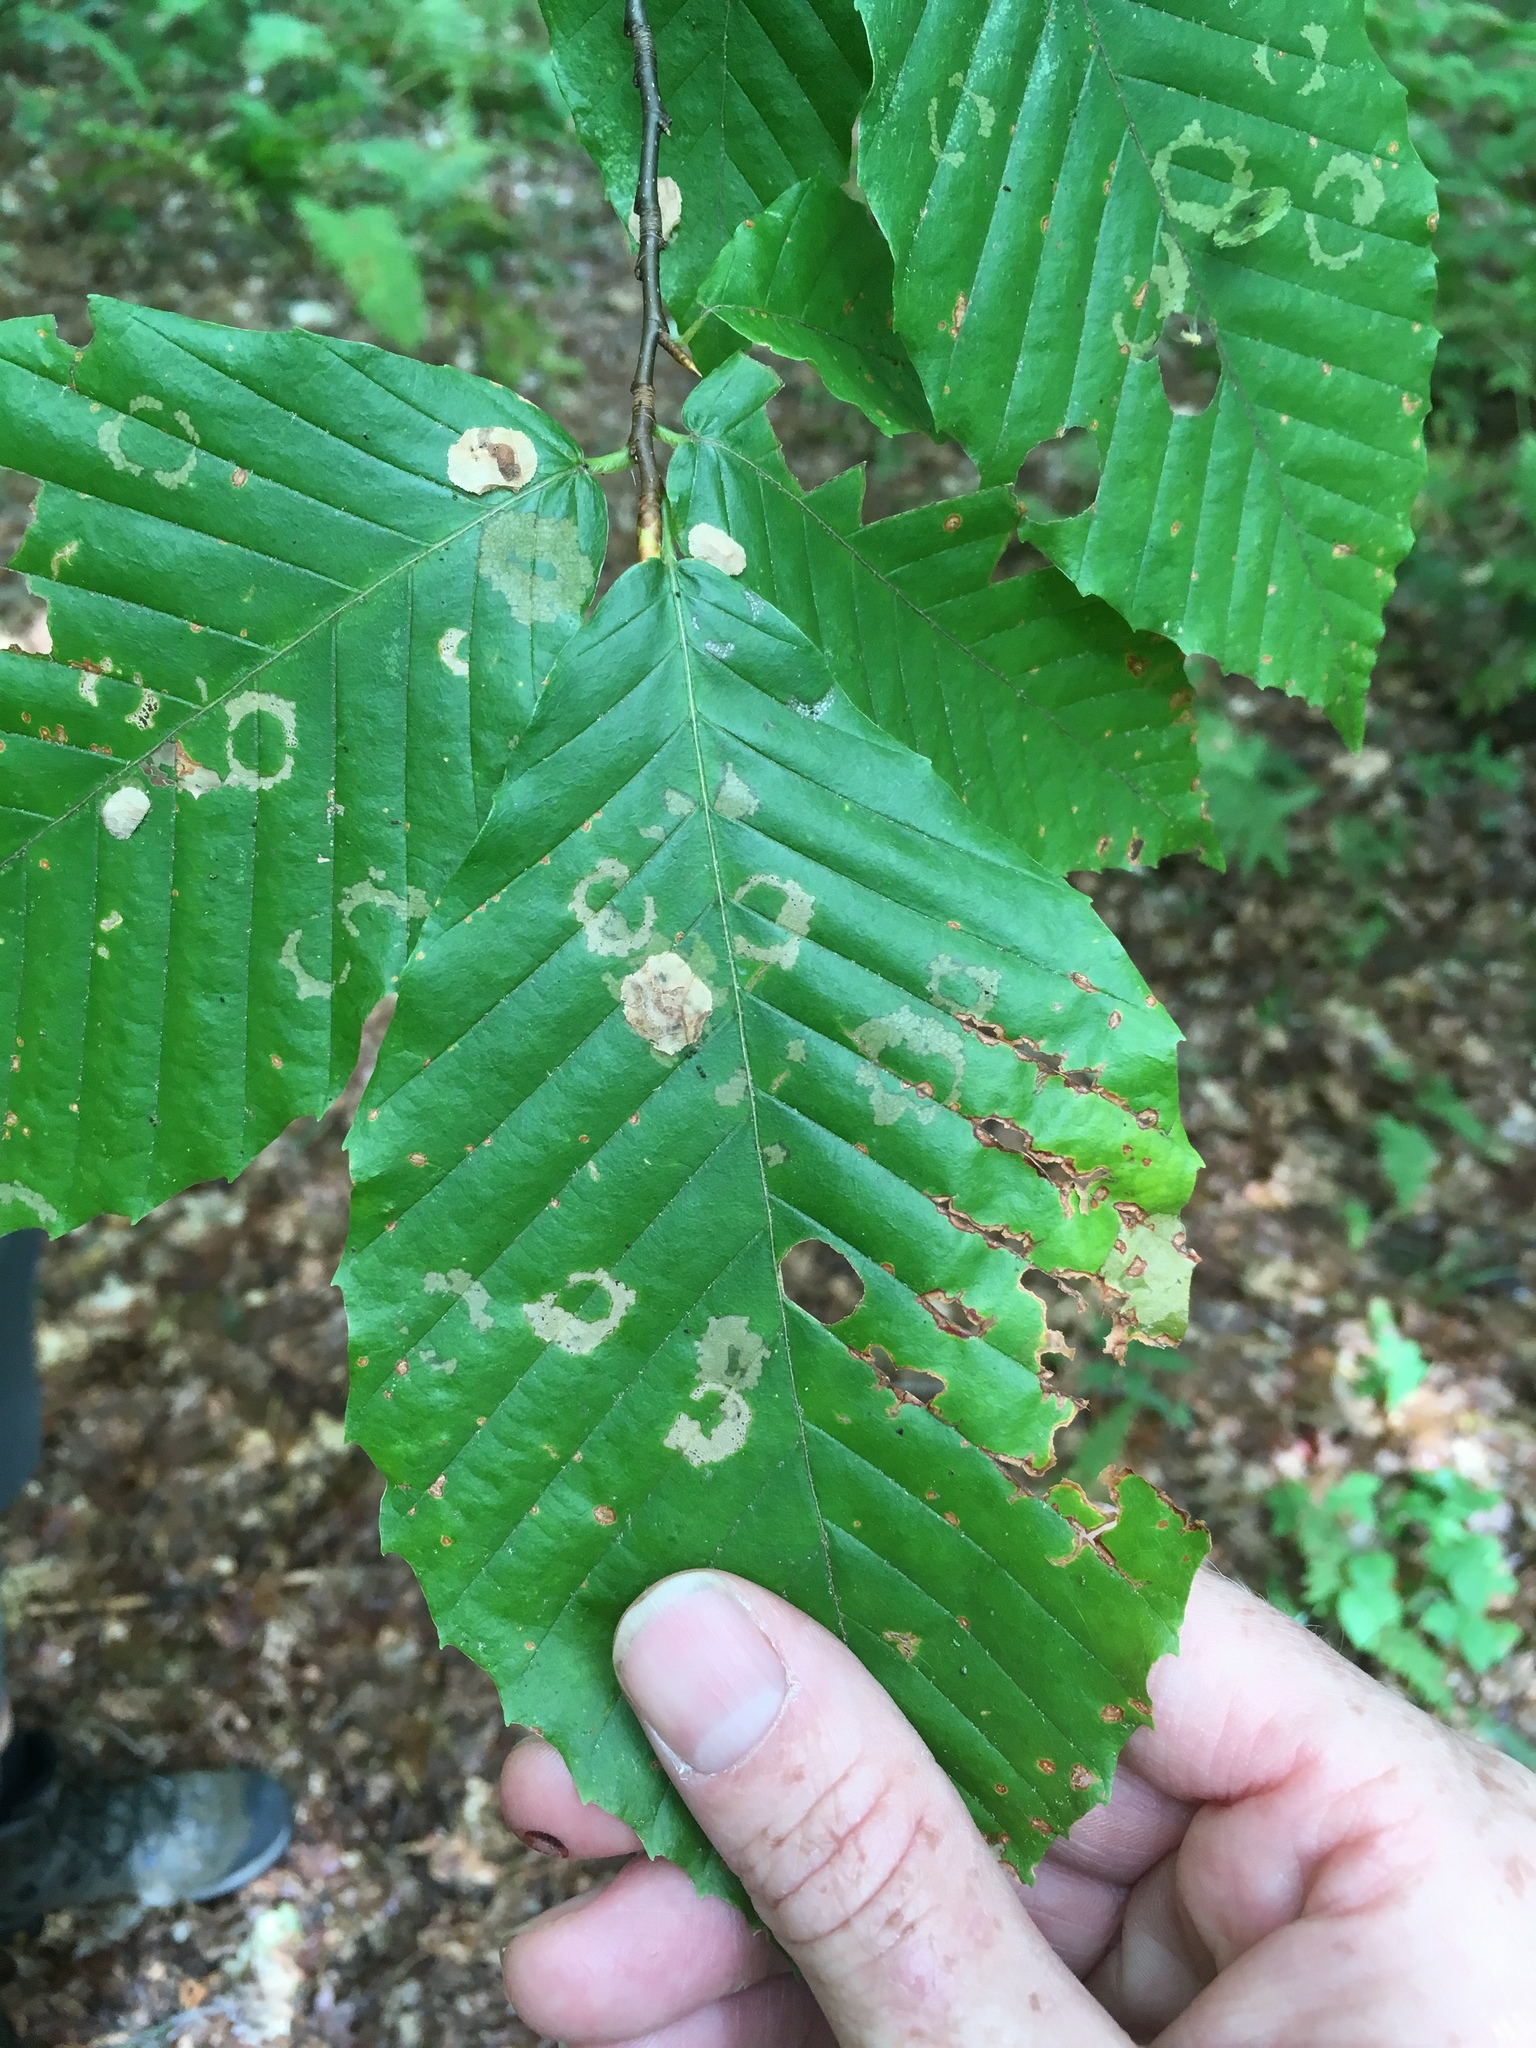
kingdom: Animalia
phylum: Arthropoda
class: Insecta
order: Lepidoptera
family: Incurvariidae
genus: Paraclemensia
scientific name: Paraclemensia acerifoliella
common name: Maple leafcutter
